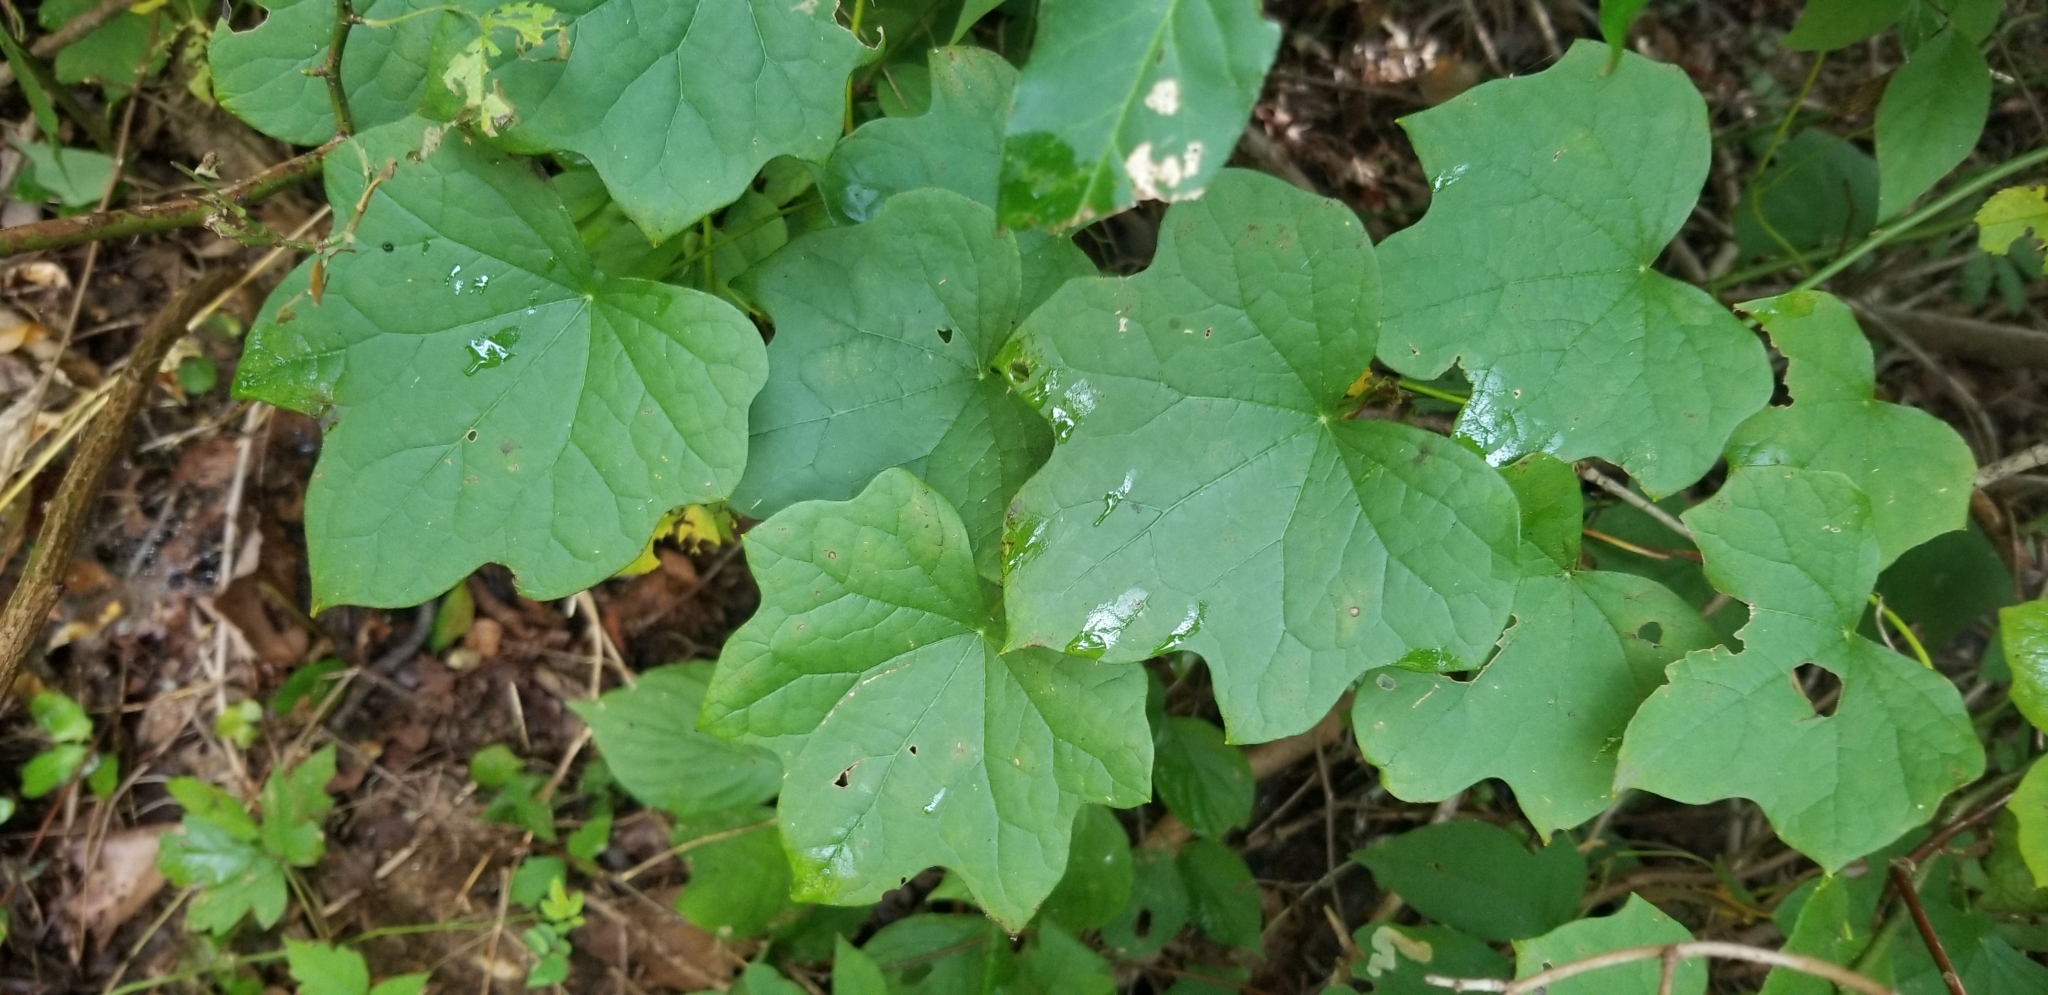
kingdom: Plantae
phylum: Tracheophyta
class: Magnoliopsida
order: Ranunculales
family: Menispermaceae
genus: Menispermum
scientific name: Menispermum canadense
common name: Moonseed
